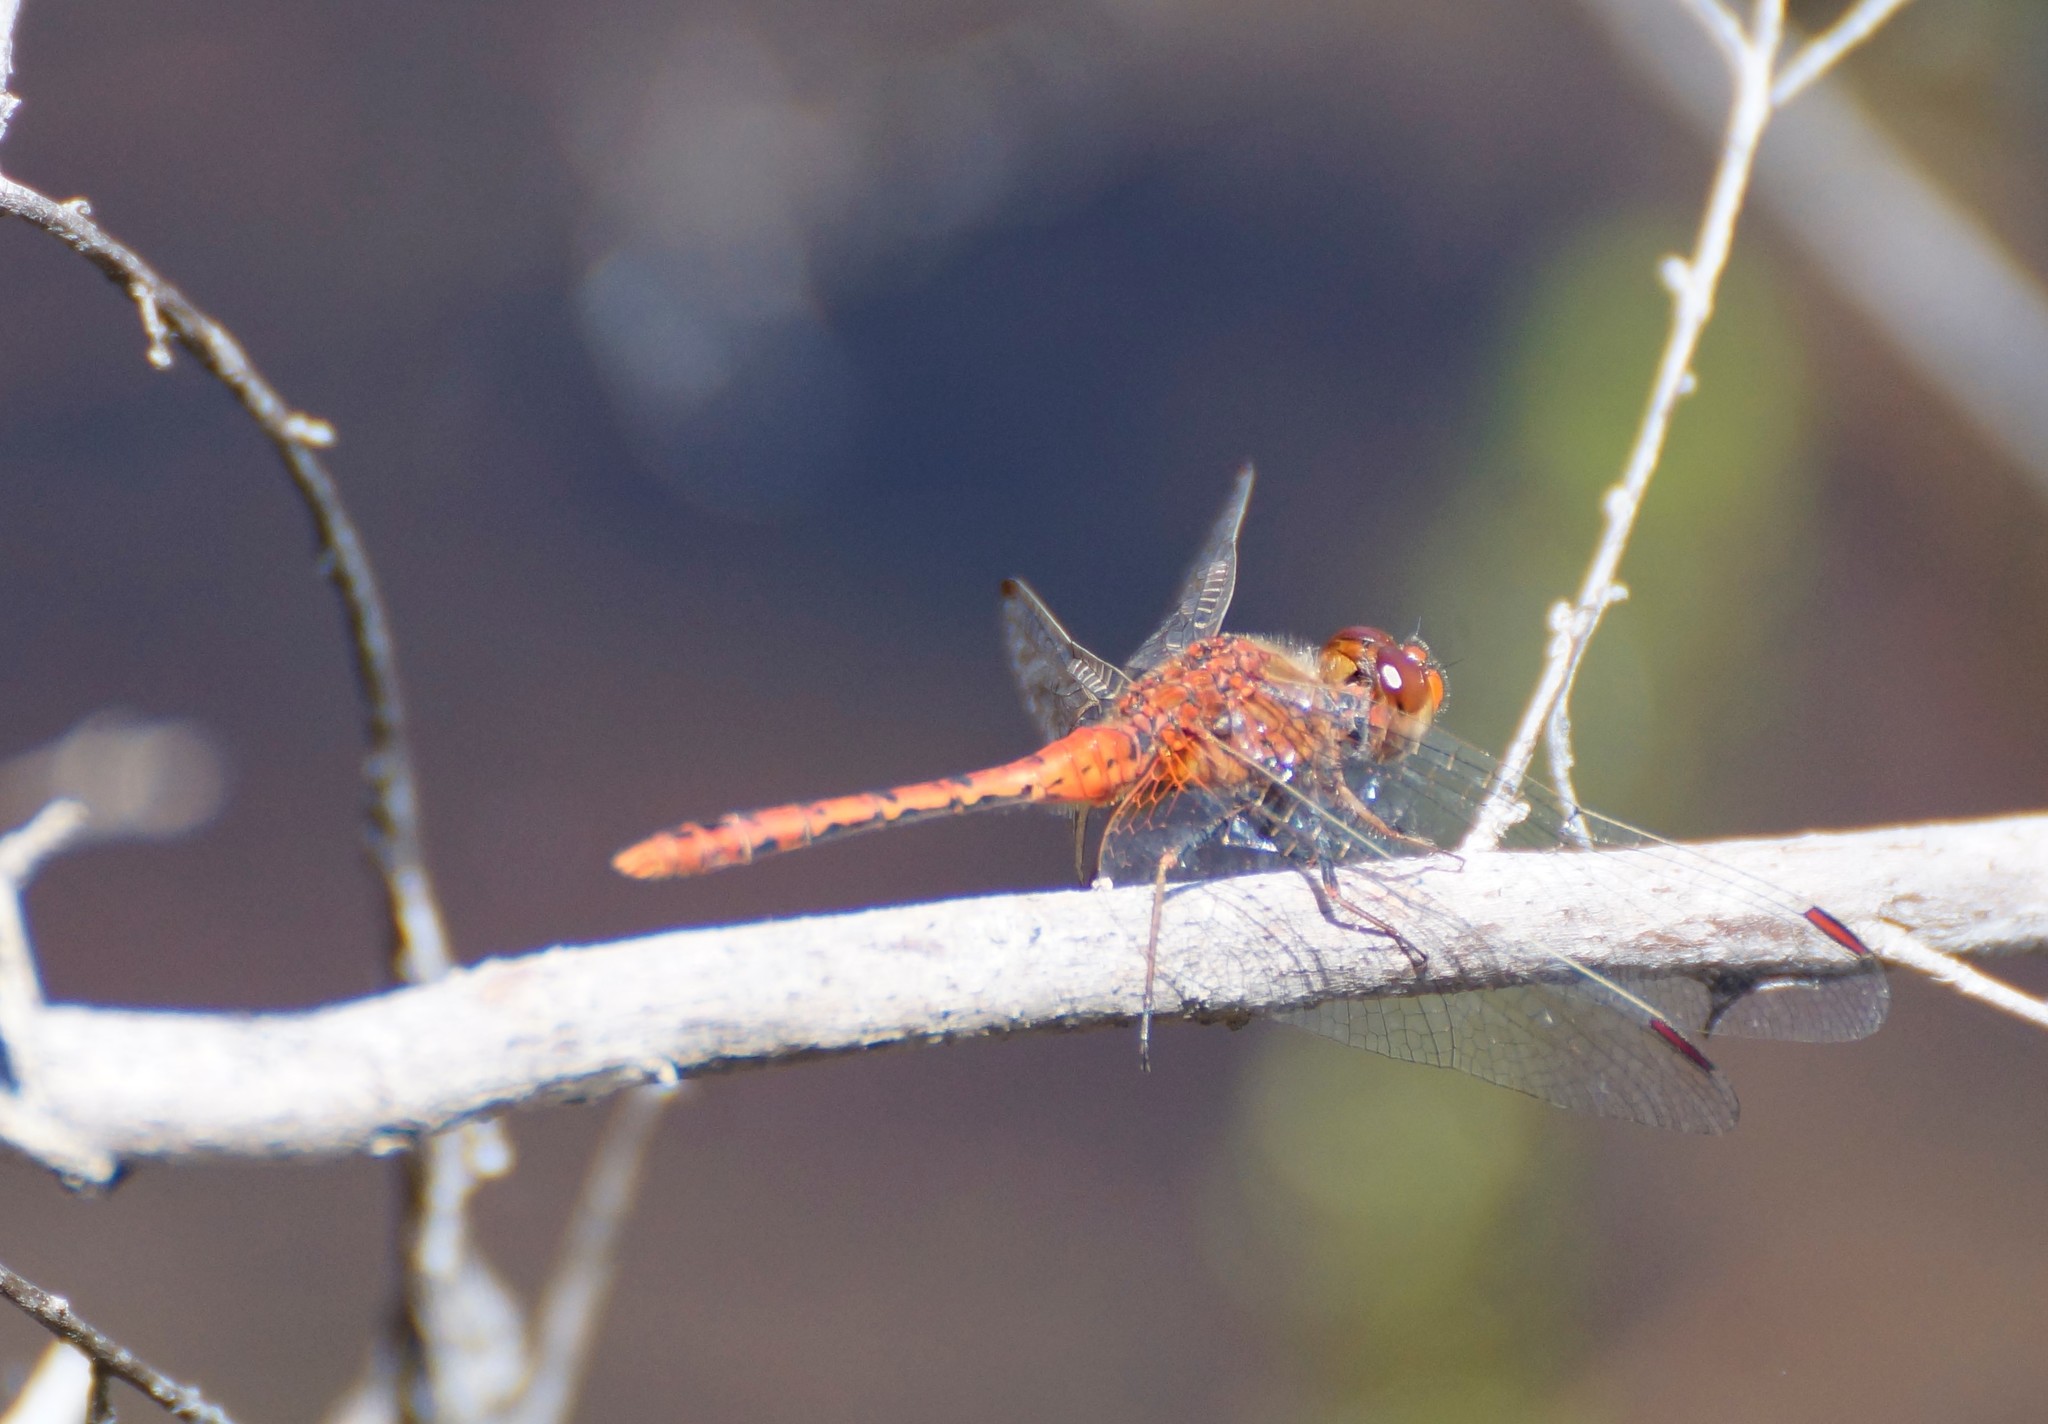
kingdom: Animalia
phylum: Arthropoda
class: Insecta
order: Odonata
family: Libellulidae
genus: Diplacodes
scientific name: Diplacodes bipunctata
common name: Red percher dragonfly
